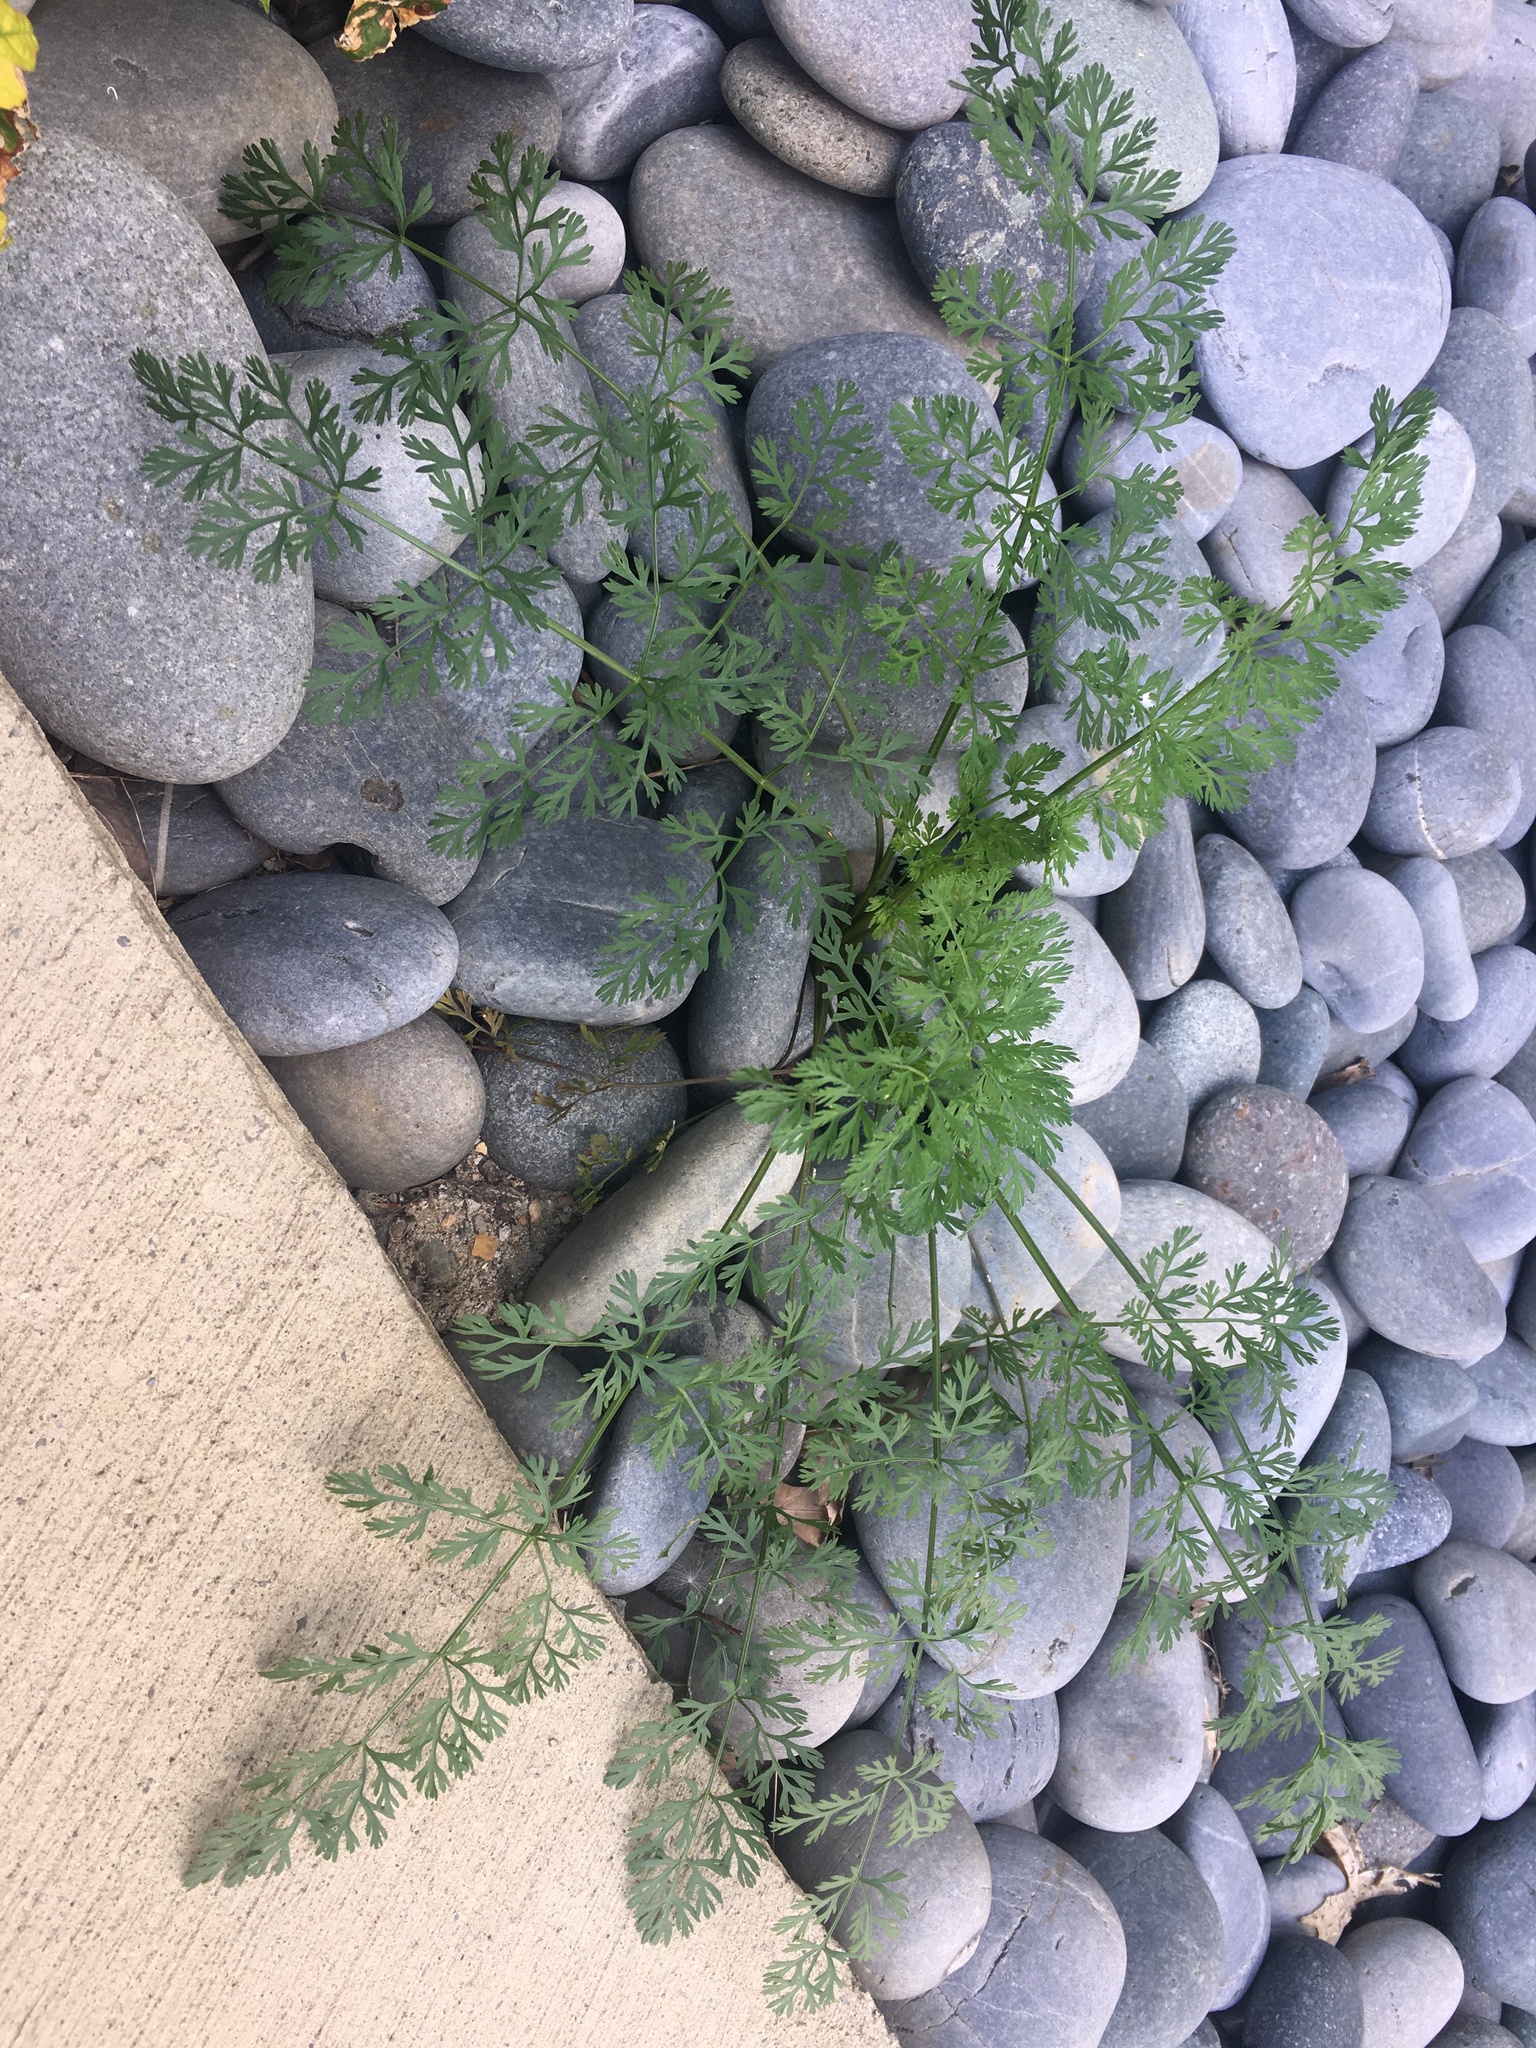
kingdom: Plantae
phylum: Tracheophyta
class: Magnoliopsida
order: Apiales
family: Apiaceae
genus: Daucus
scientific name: Daucus carota
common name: Wild carrot
